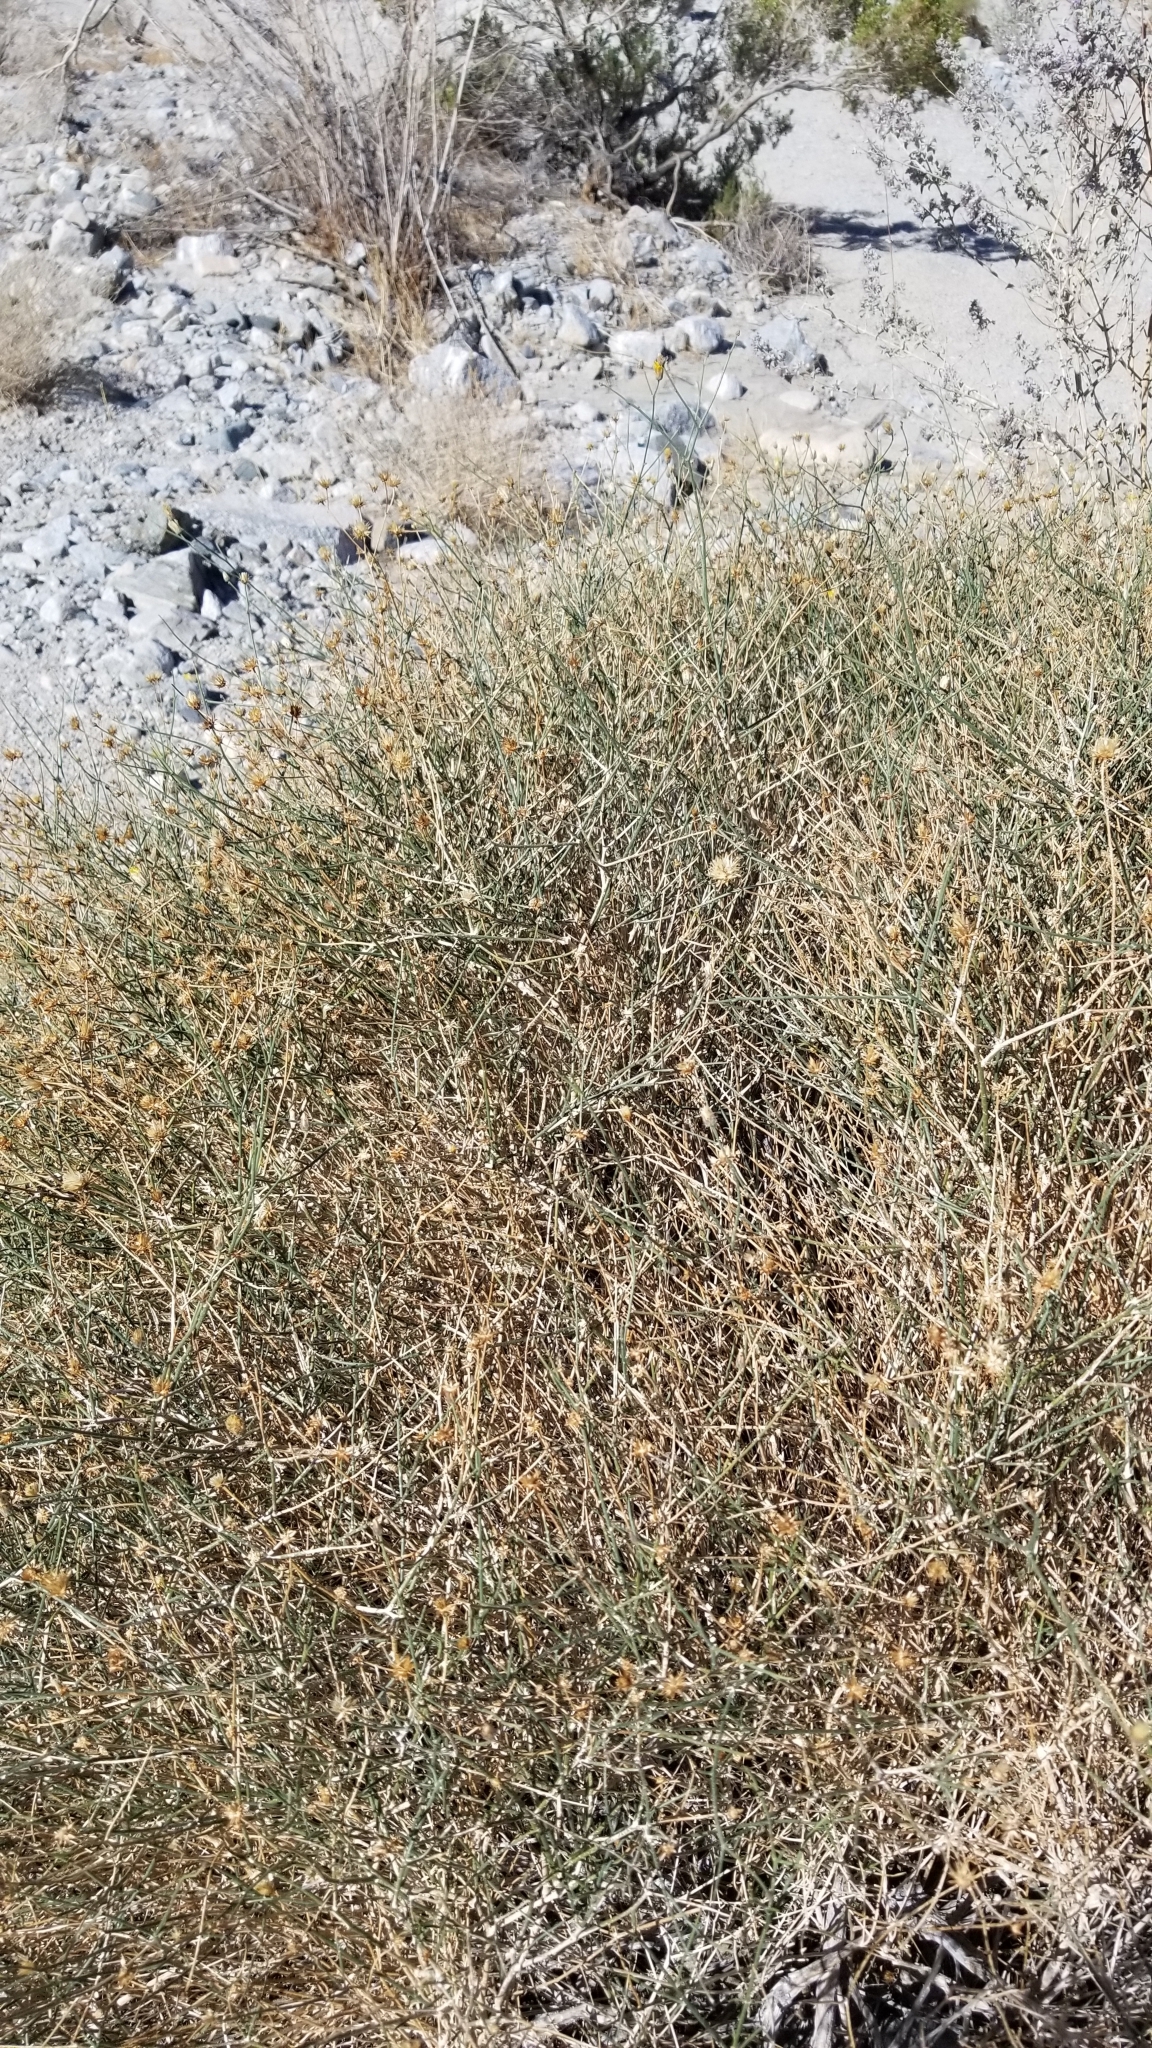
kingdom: Plantae
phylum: Tracheophyta
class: Magnoliopsida
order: Asterales
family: Asteraceae
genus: Bebbia
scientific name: Bebbia juncea
